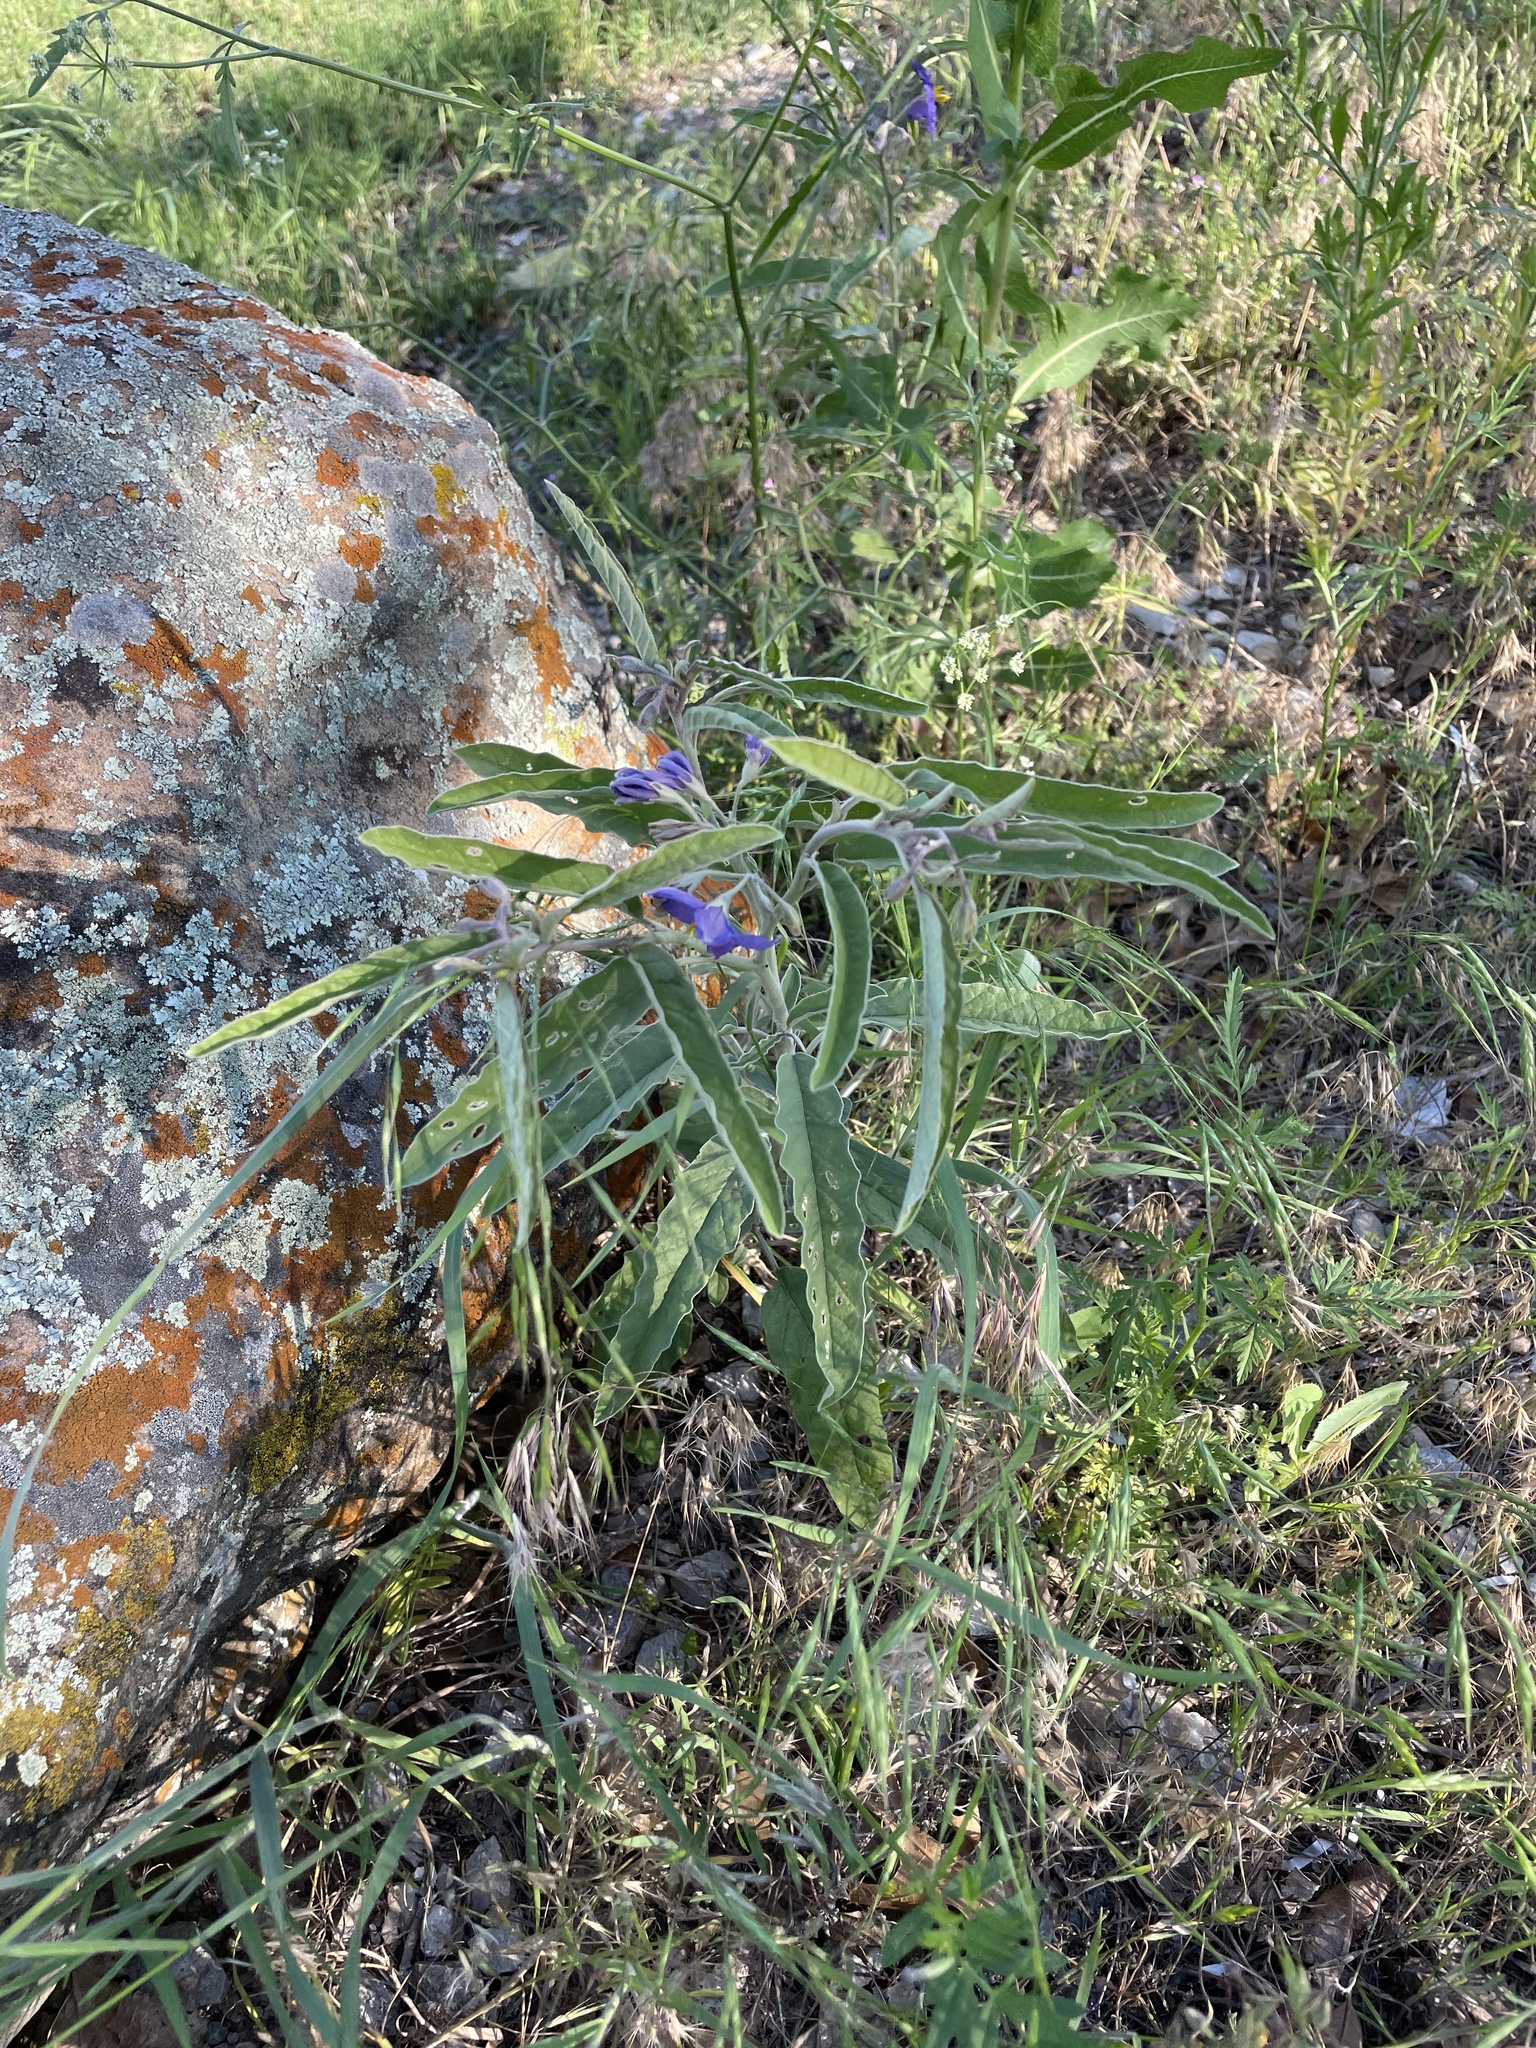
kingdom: Plantae
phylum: Tracheophyta
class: Magnoliopsida
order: Solanales
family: Solanaceae
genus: Solanum
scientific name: Solanum elaeagnifolium
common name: Silverleaf nightshade
